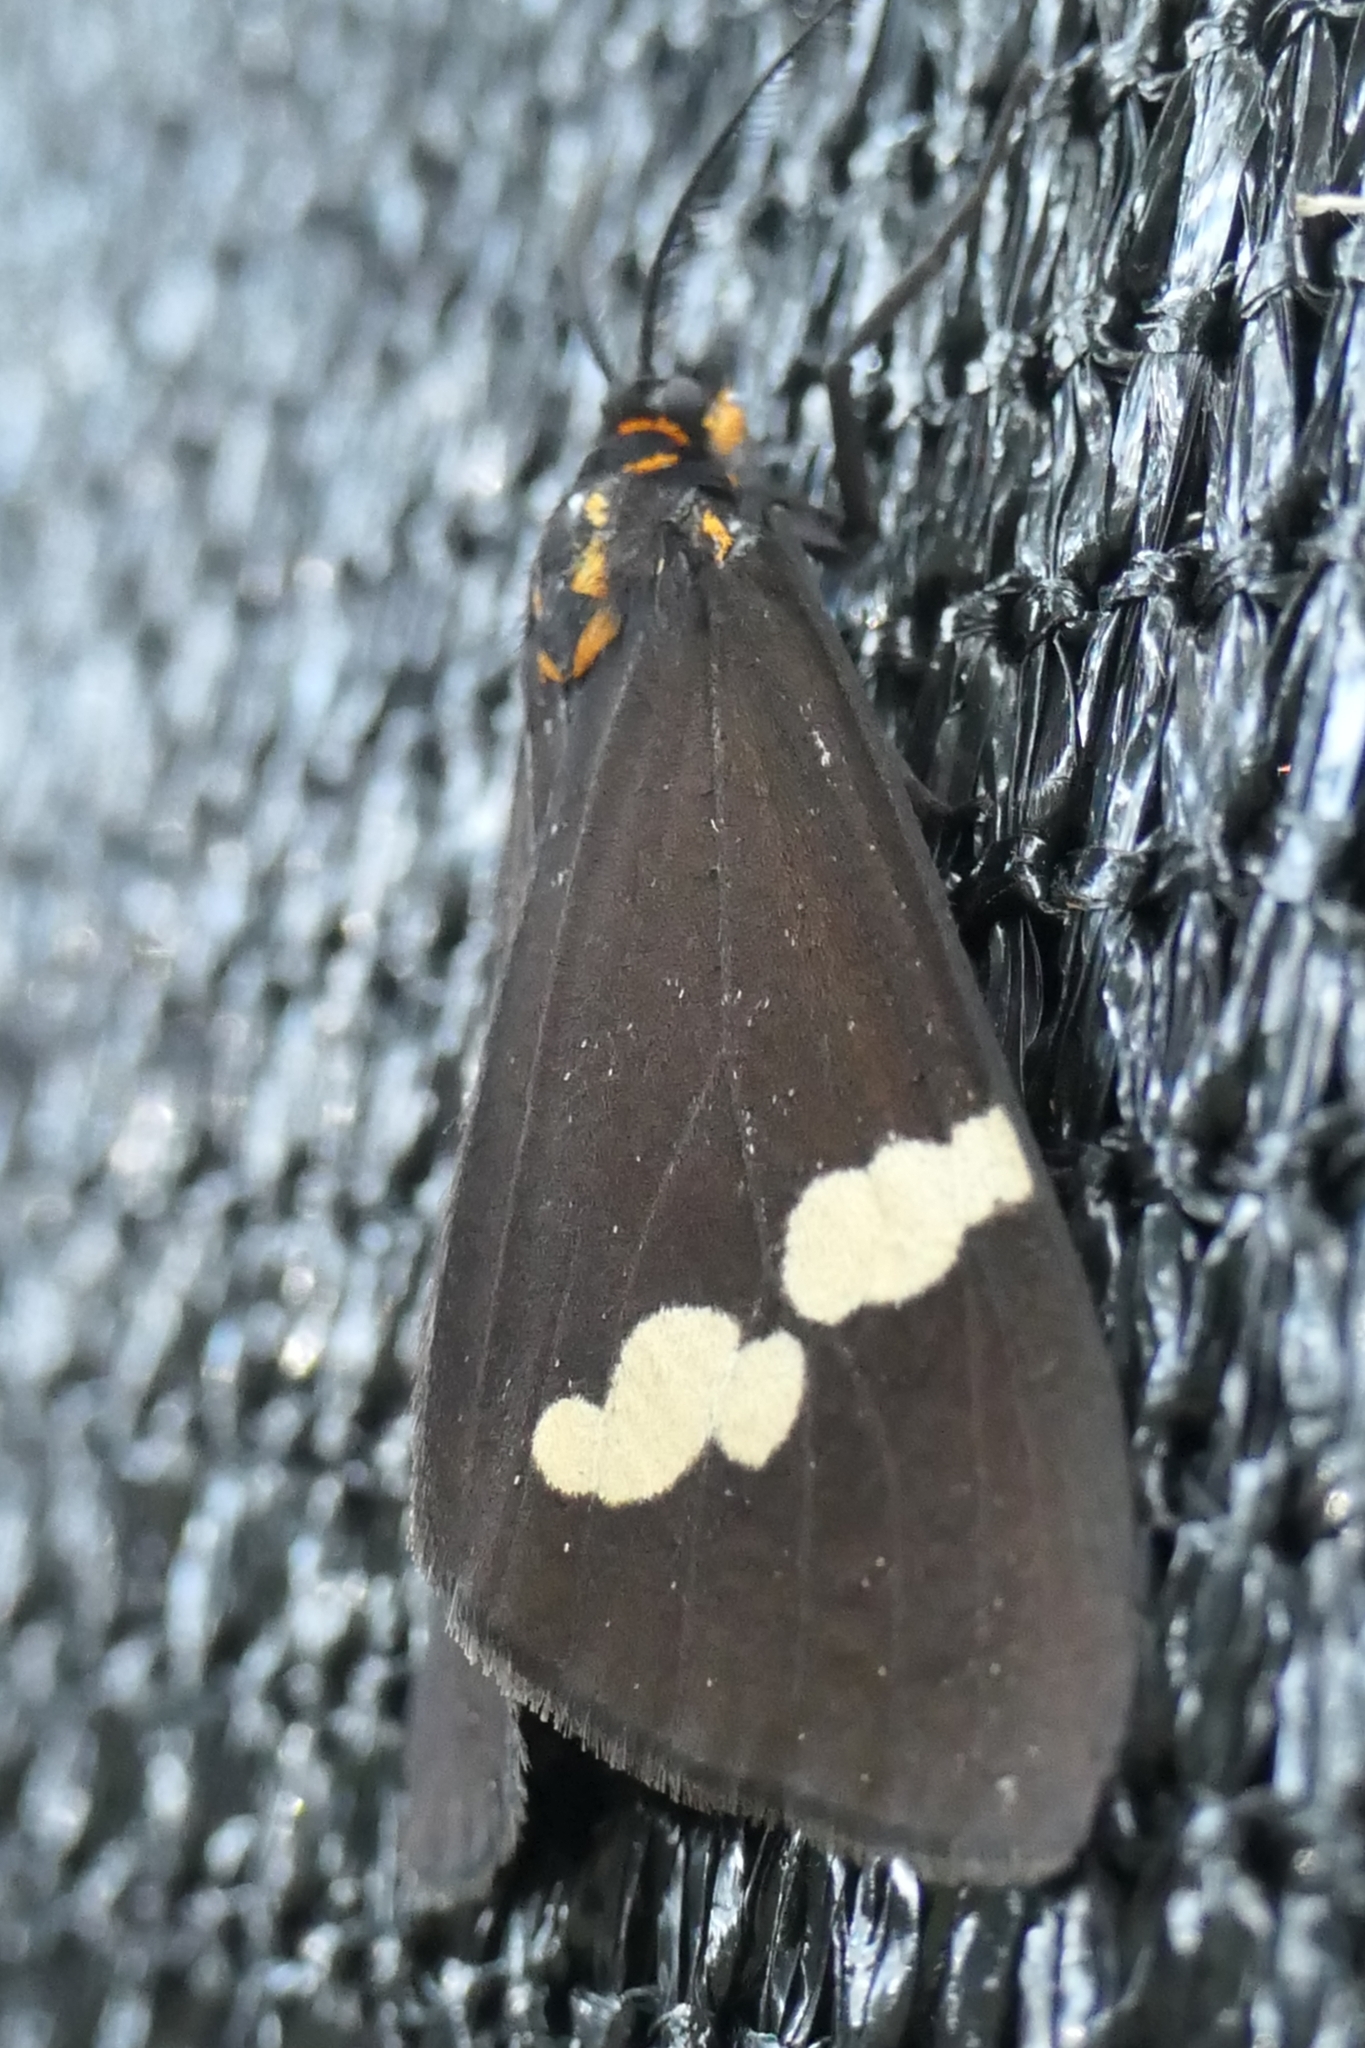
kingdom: Animalia
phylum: Arthropoda
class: Insecta
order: Lepidoptera
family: Erebidae
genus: Nyctemera
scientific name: Nyctemera annulatum
